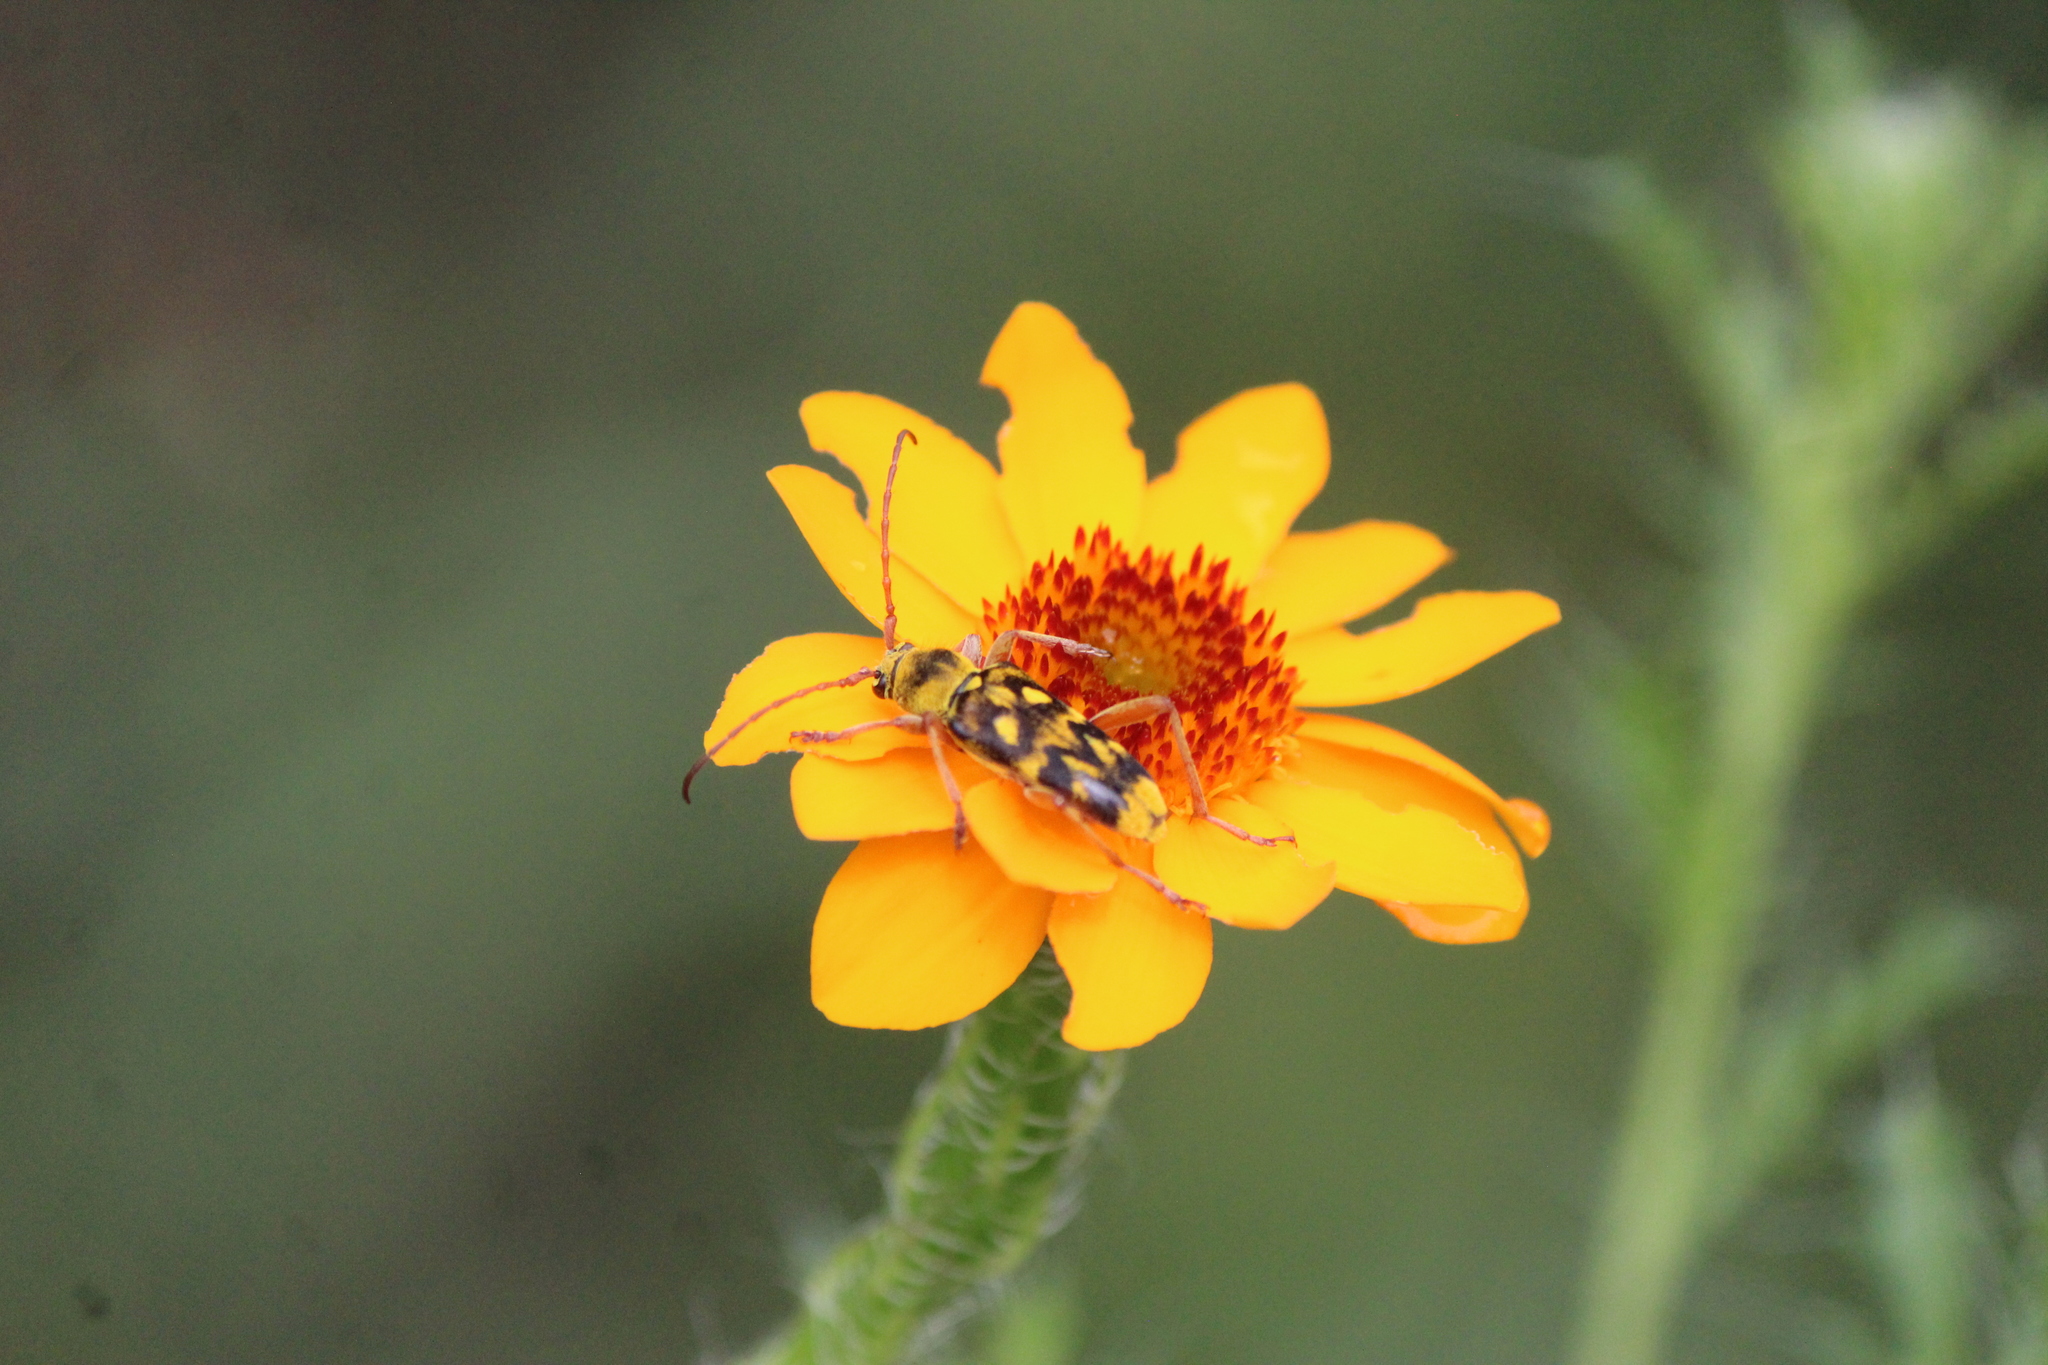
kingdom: Animalia
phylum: Arthropoda
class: Insecta
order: Coleoptera
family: Cerambycidae
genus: Ochraethes
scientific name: Ochraethes sommeri
